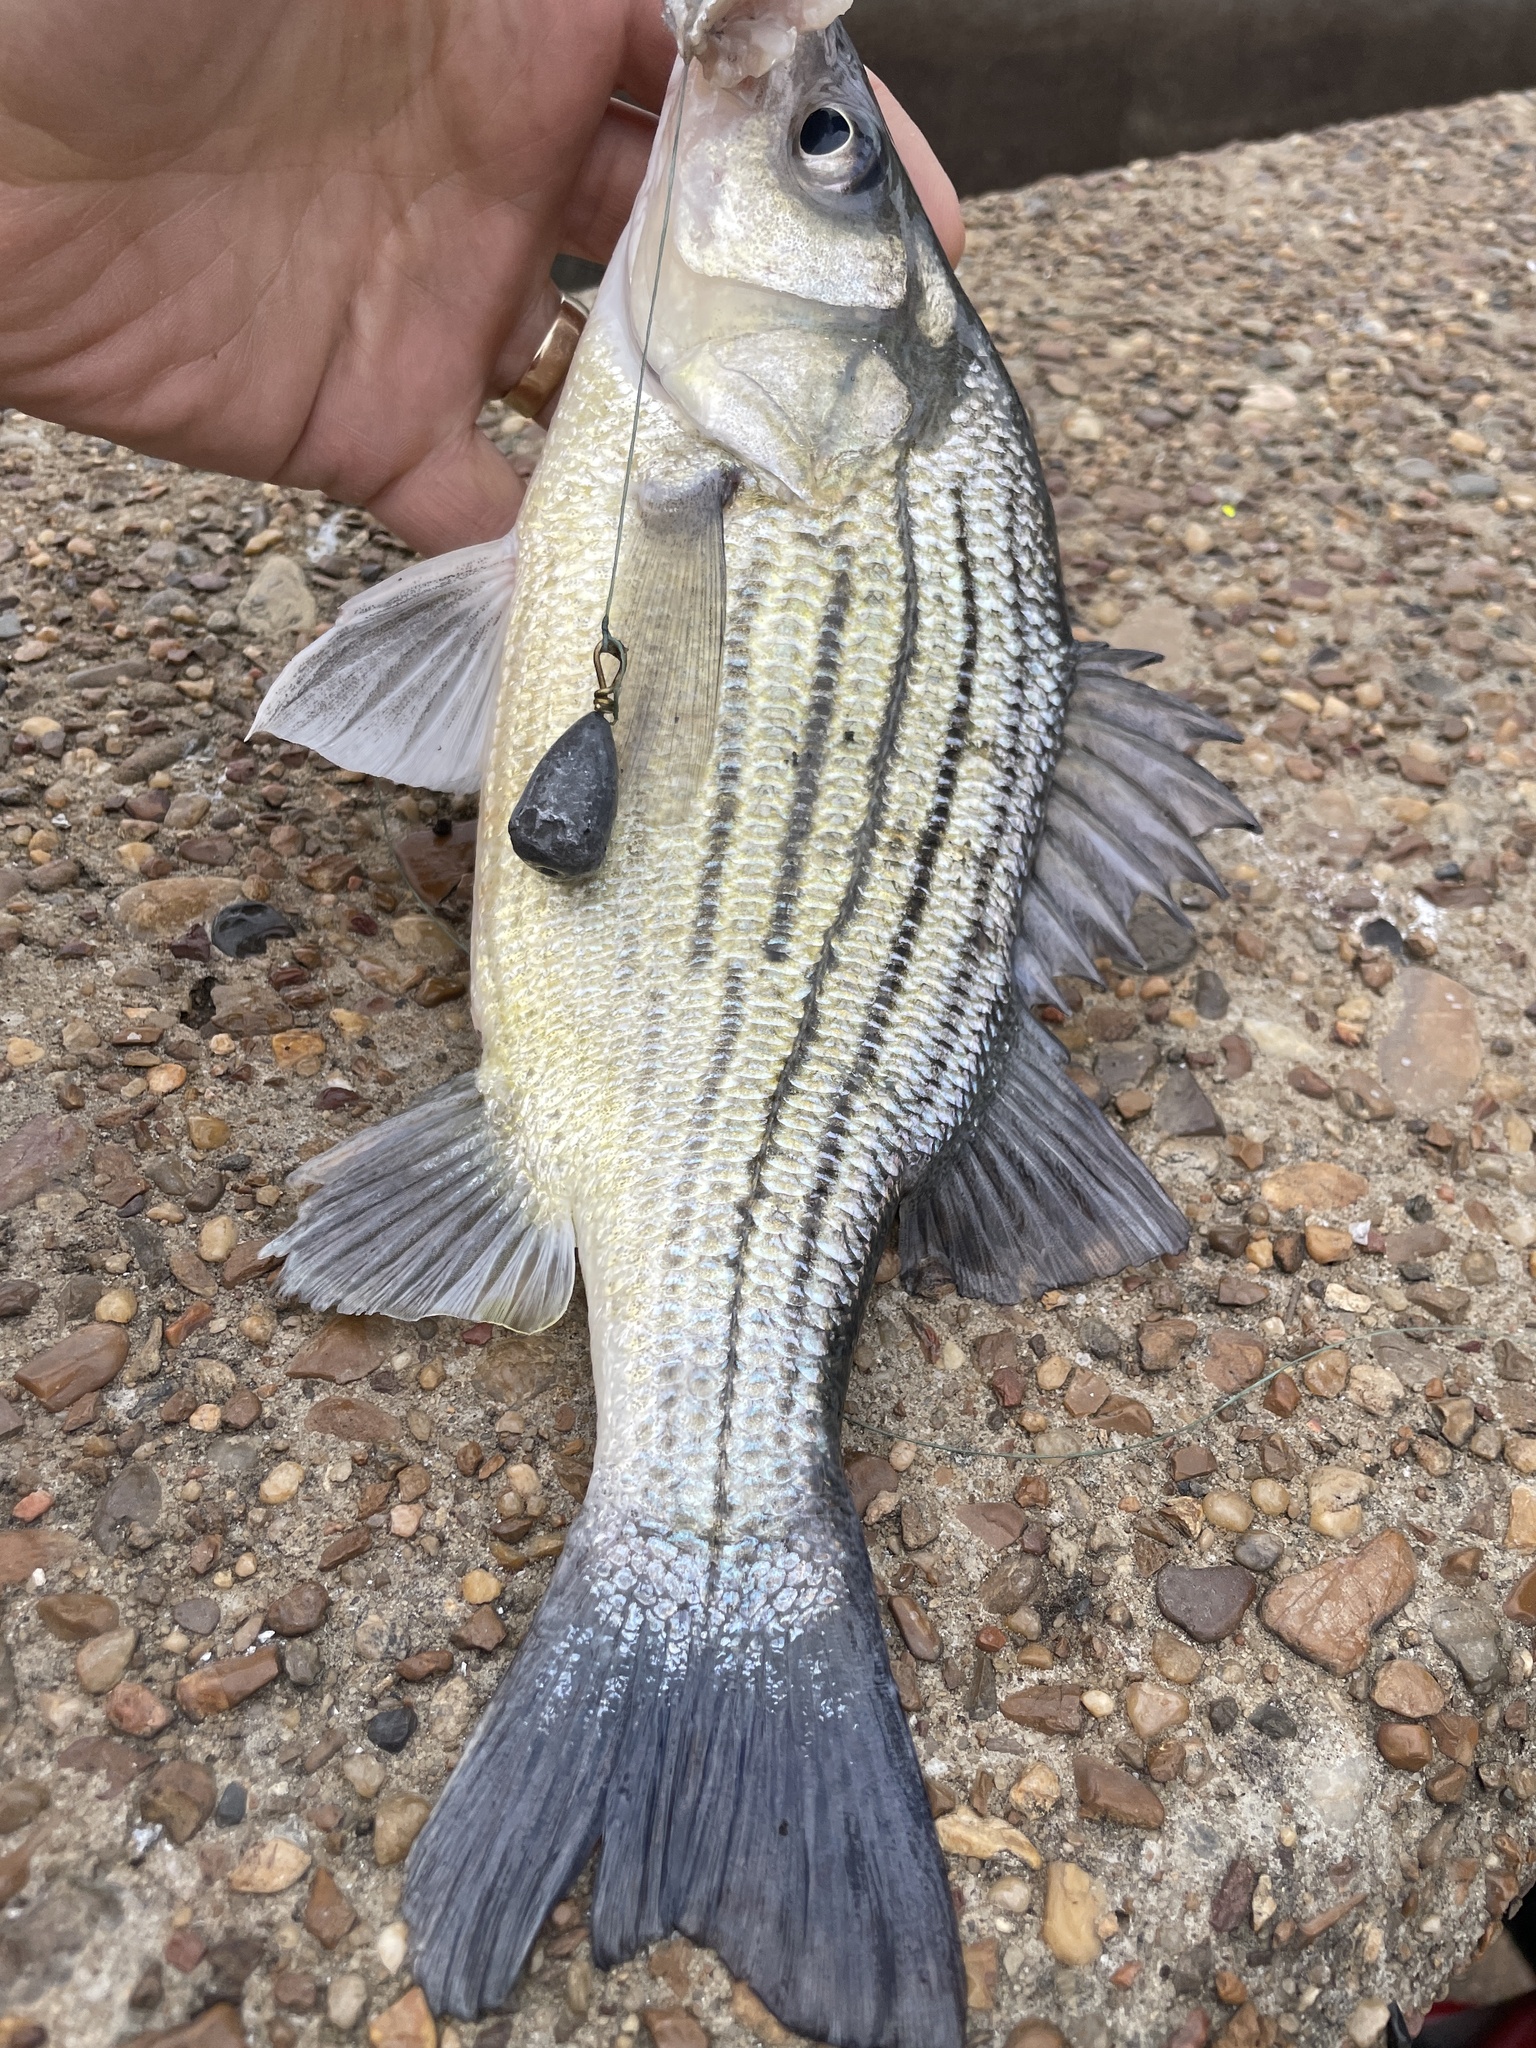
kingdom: Animalia
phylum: Chordata
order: Perciformes
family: Moronidae
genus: Morone
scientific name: Morone mississippiensis
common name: Yellow bass
